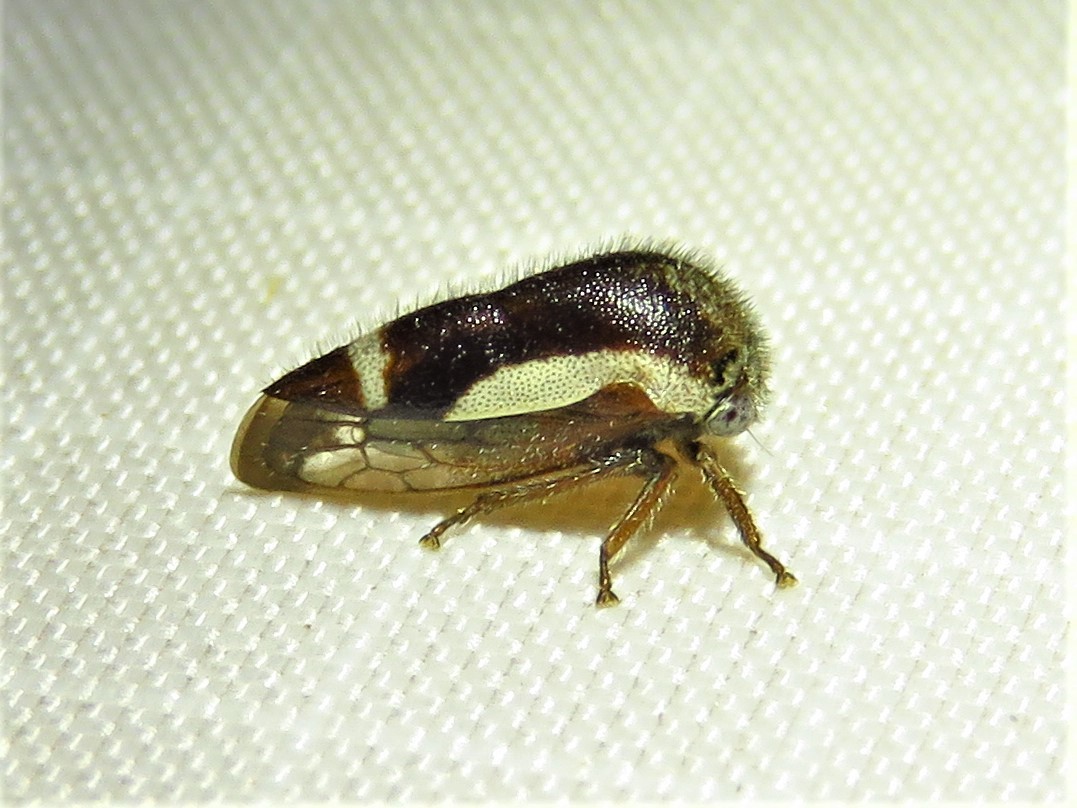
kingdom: Animalia
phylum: Arthropoda
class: Insecta
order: Hemiptera
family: Membracidae
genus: Ophiderma
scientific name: Ophiderma flavicephala
